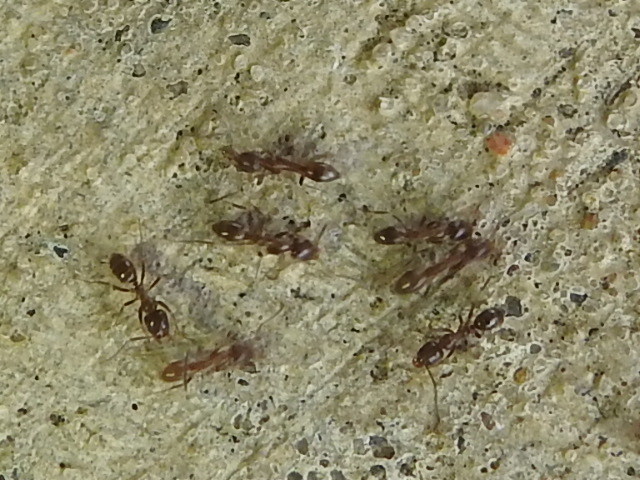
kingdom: Animalia
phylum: Arthropoda
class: Insecta
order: Hymenoptera
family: Formicidae
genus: Linepithema
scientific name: Linepithema humile
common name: Argentine ant
